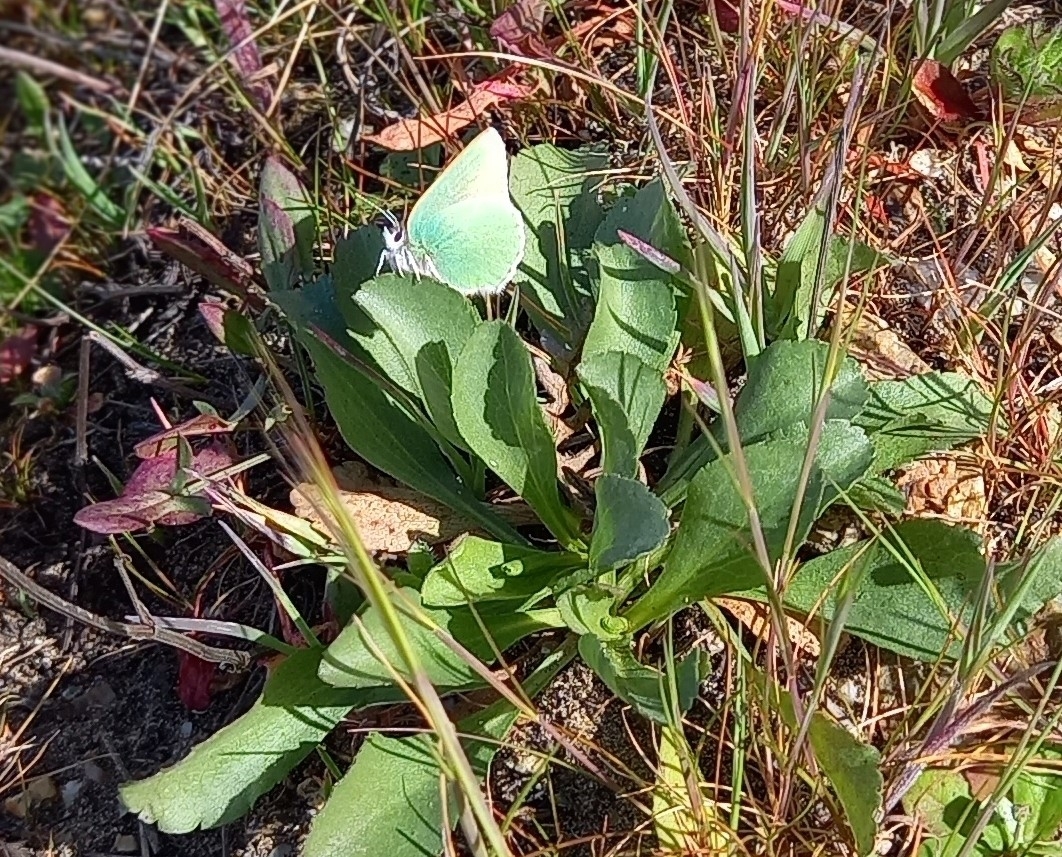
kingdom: Animalia
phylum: Arthropoda
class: Insecta
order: Lepidoptera
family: Lycaenidae
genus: Callophrys
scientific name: Callophrys viridis
